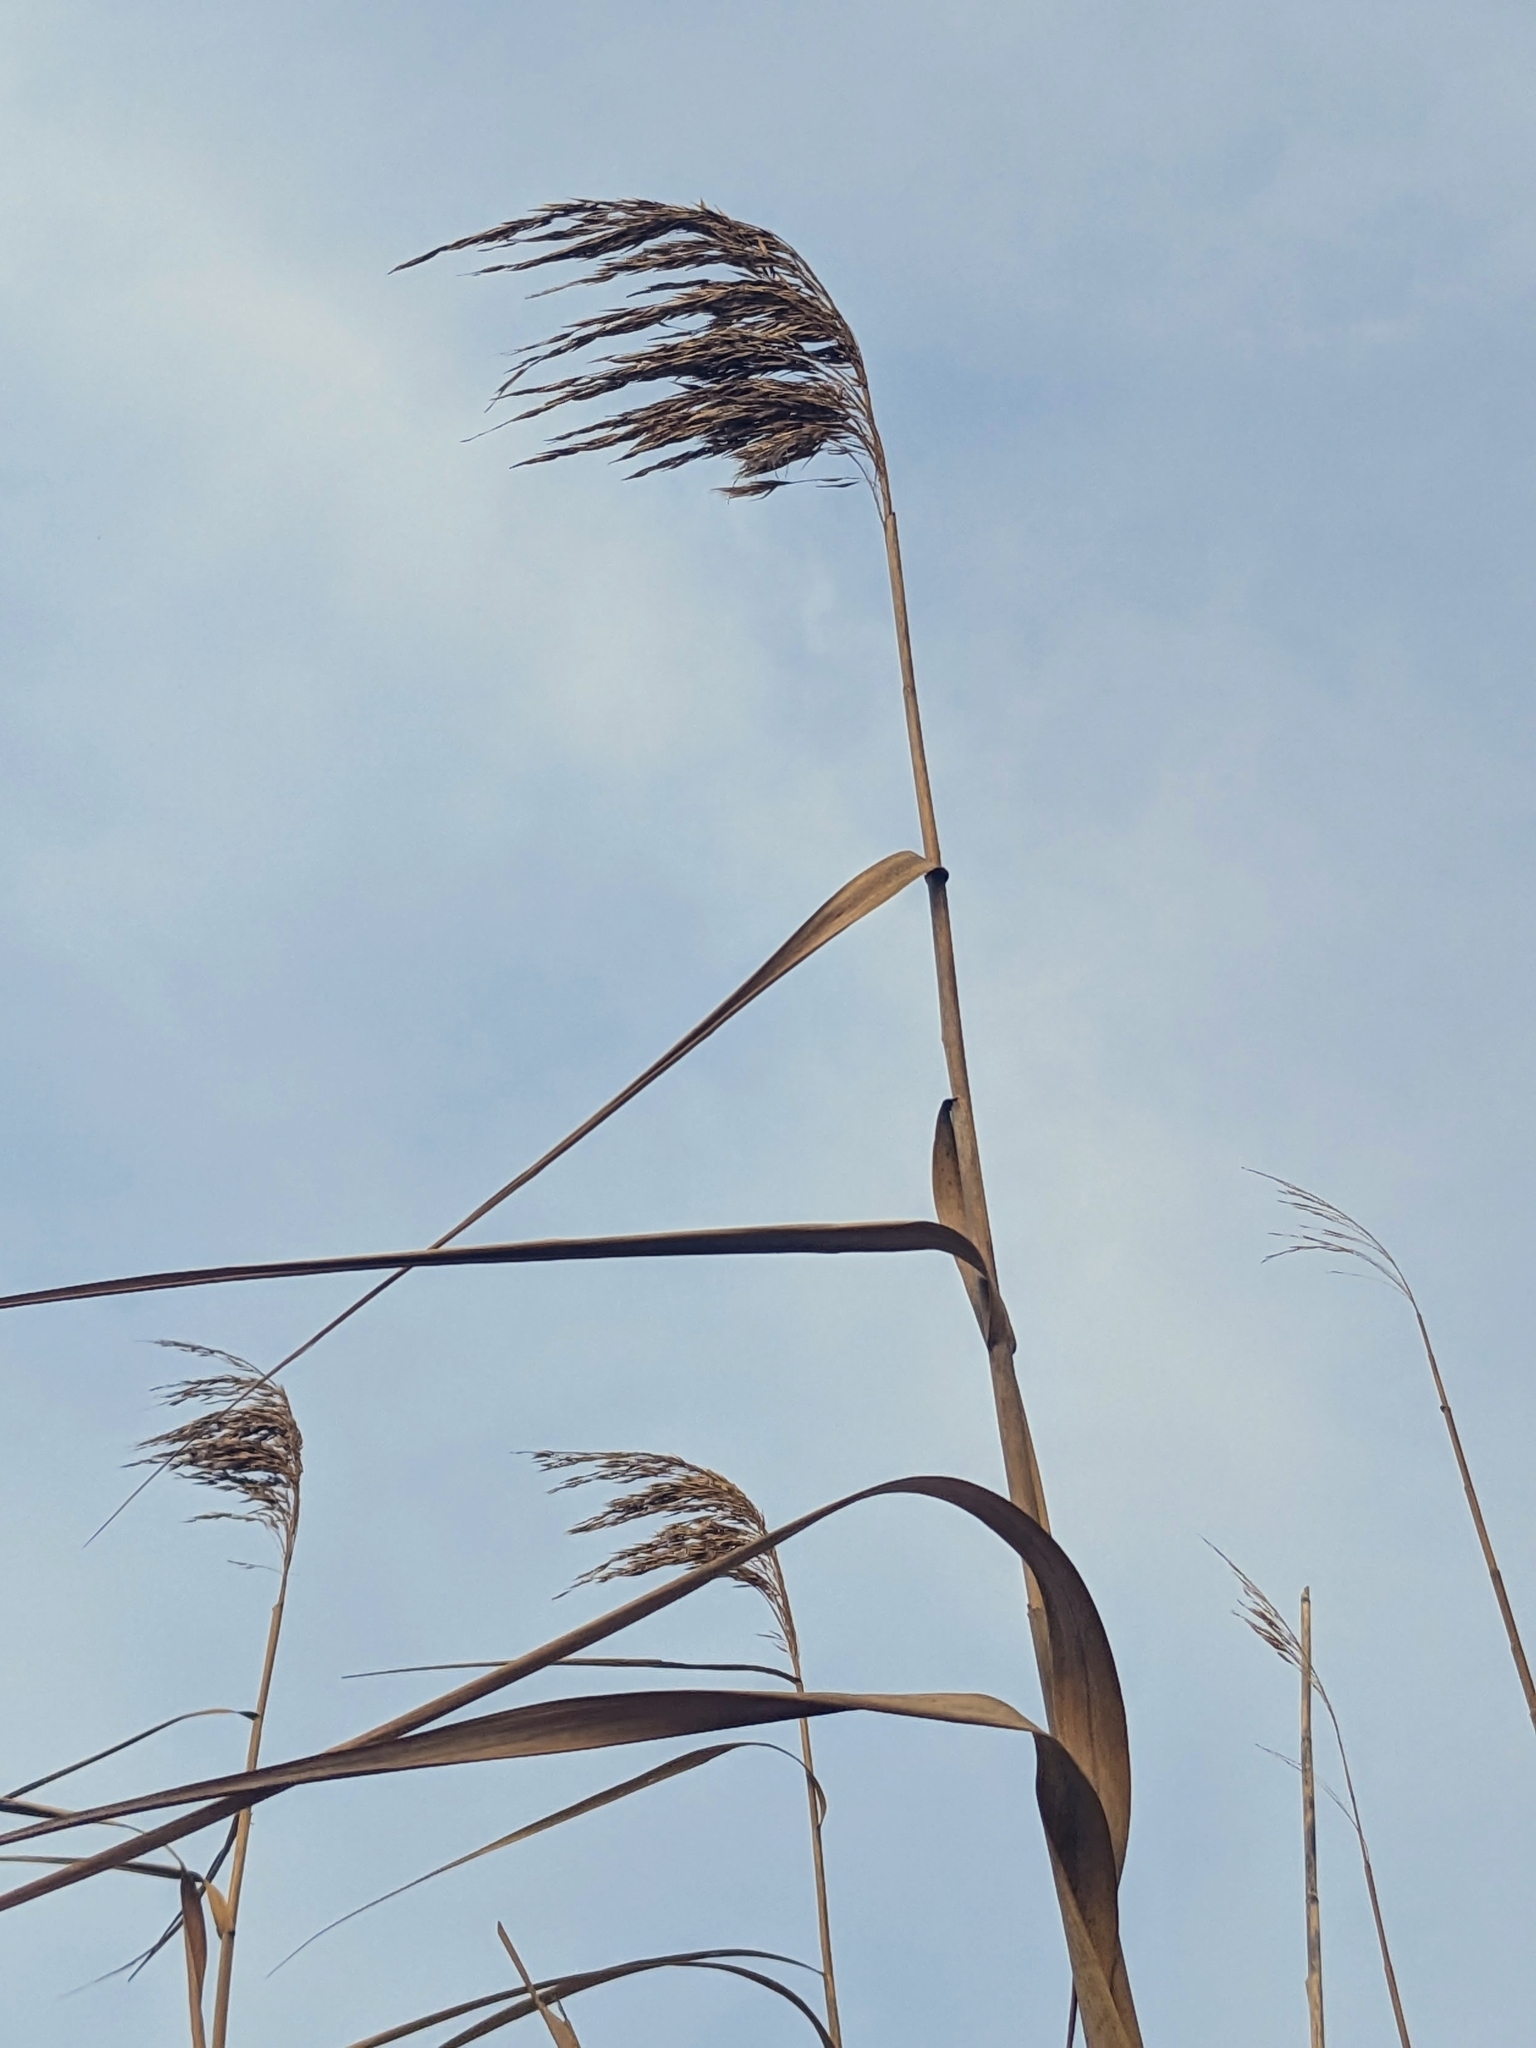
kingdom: Plantae
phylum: Tracheophyta
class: Liliopsida
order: Poales
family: Poaceae
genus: Phragmites
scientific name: Phragmites australis
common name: Common reed
